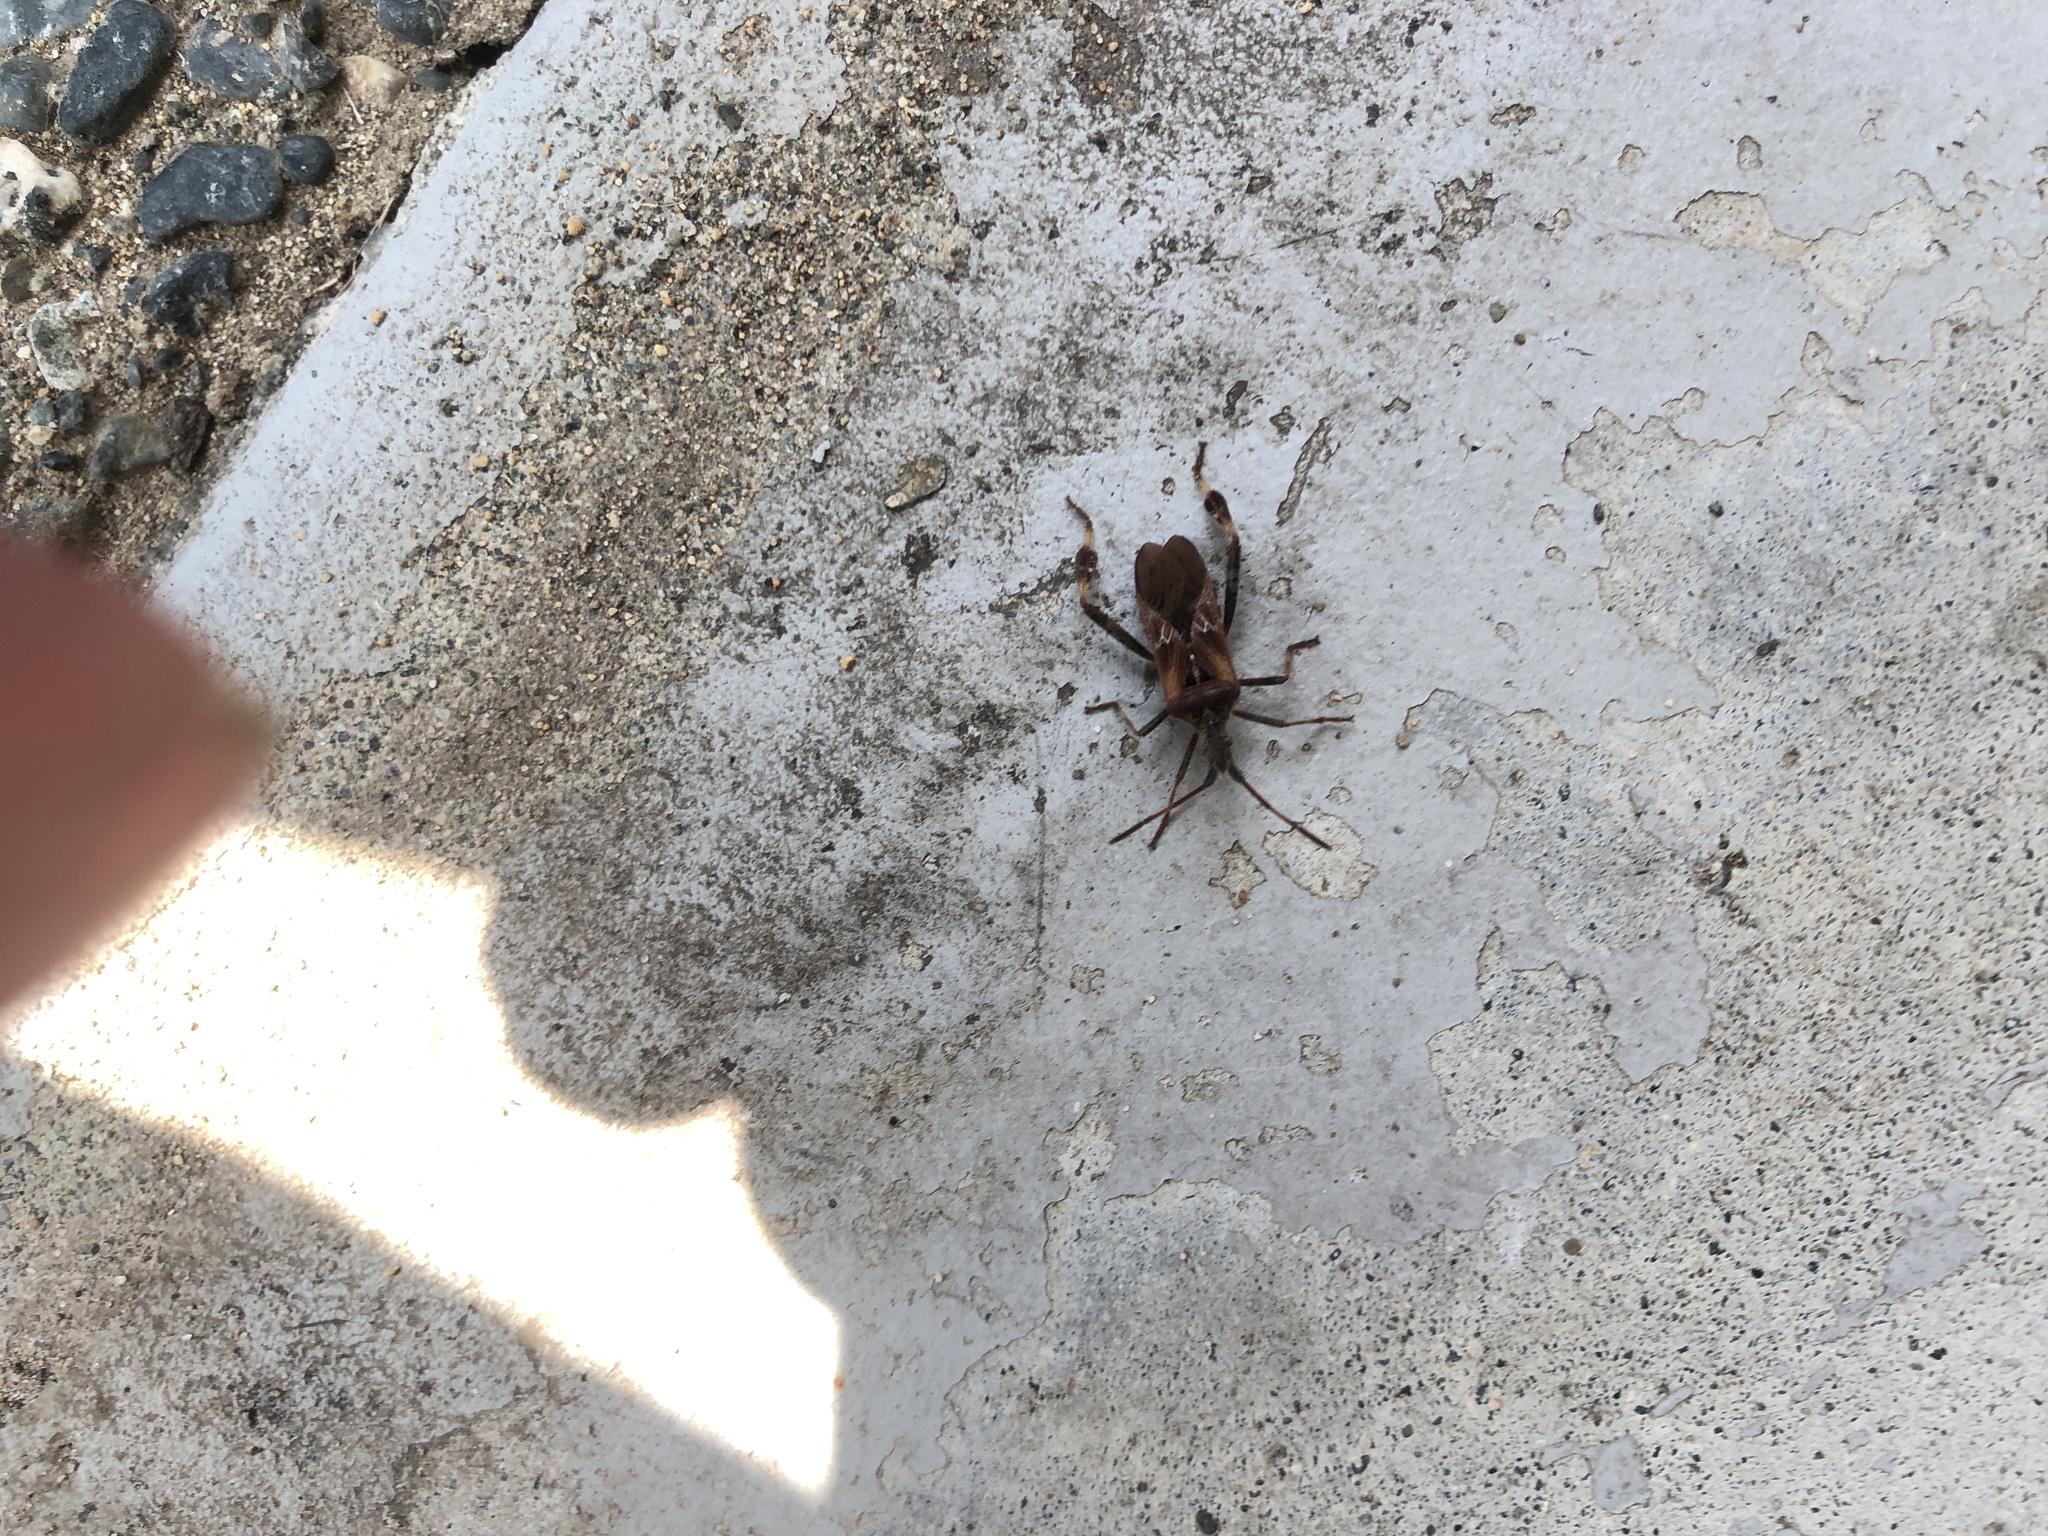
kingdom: Animalia
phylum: Arthropoda
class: Insecta
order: Hemiptera
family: Coreidae
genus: Leptoglossus
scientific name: Leptoglossus occidentalis
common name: Western conifer-seed bug
